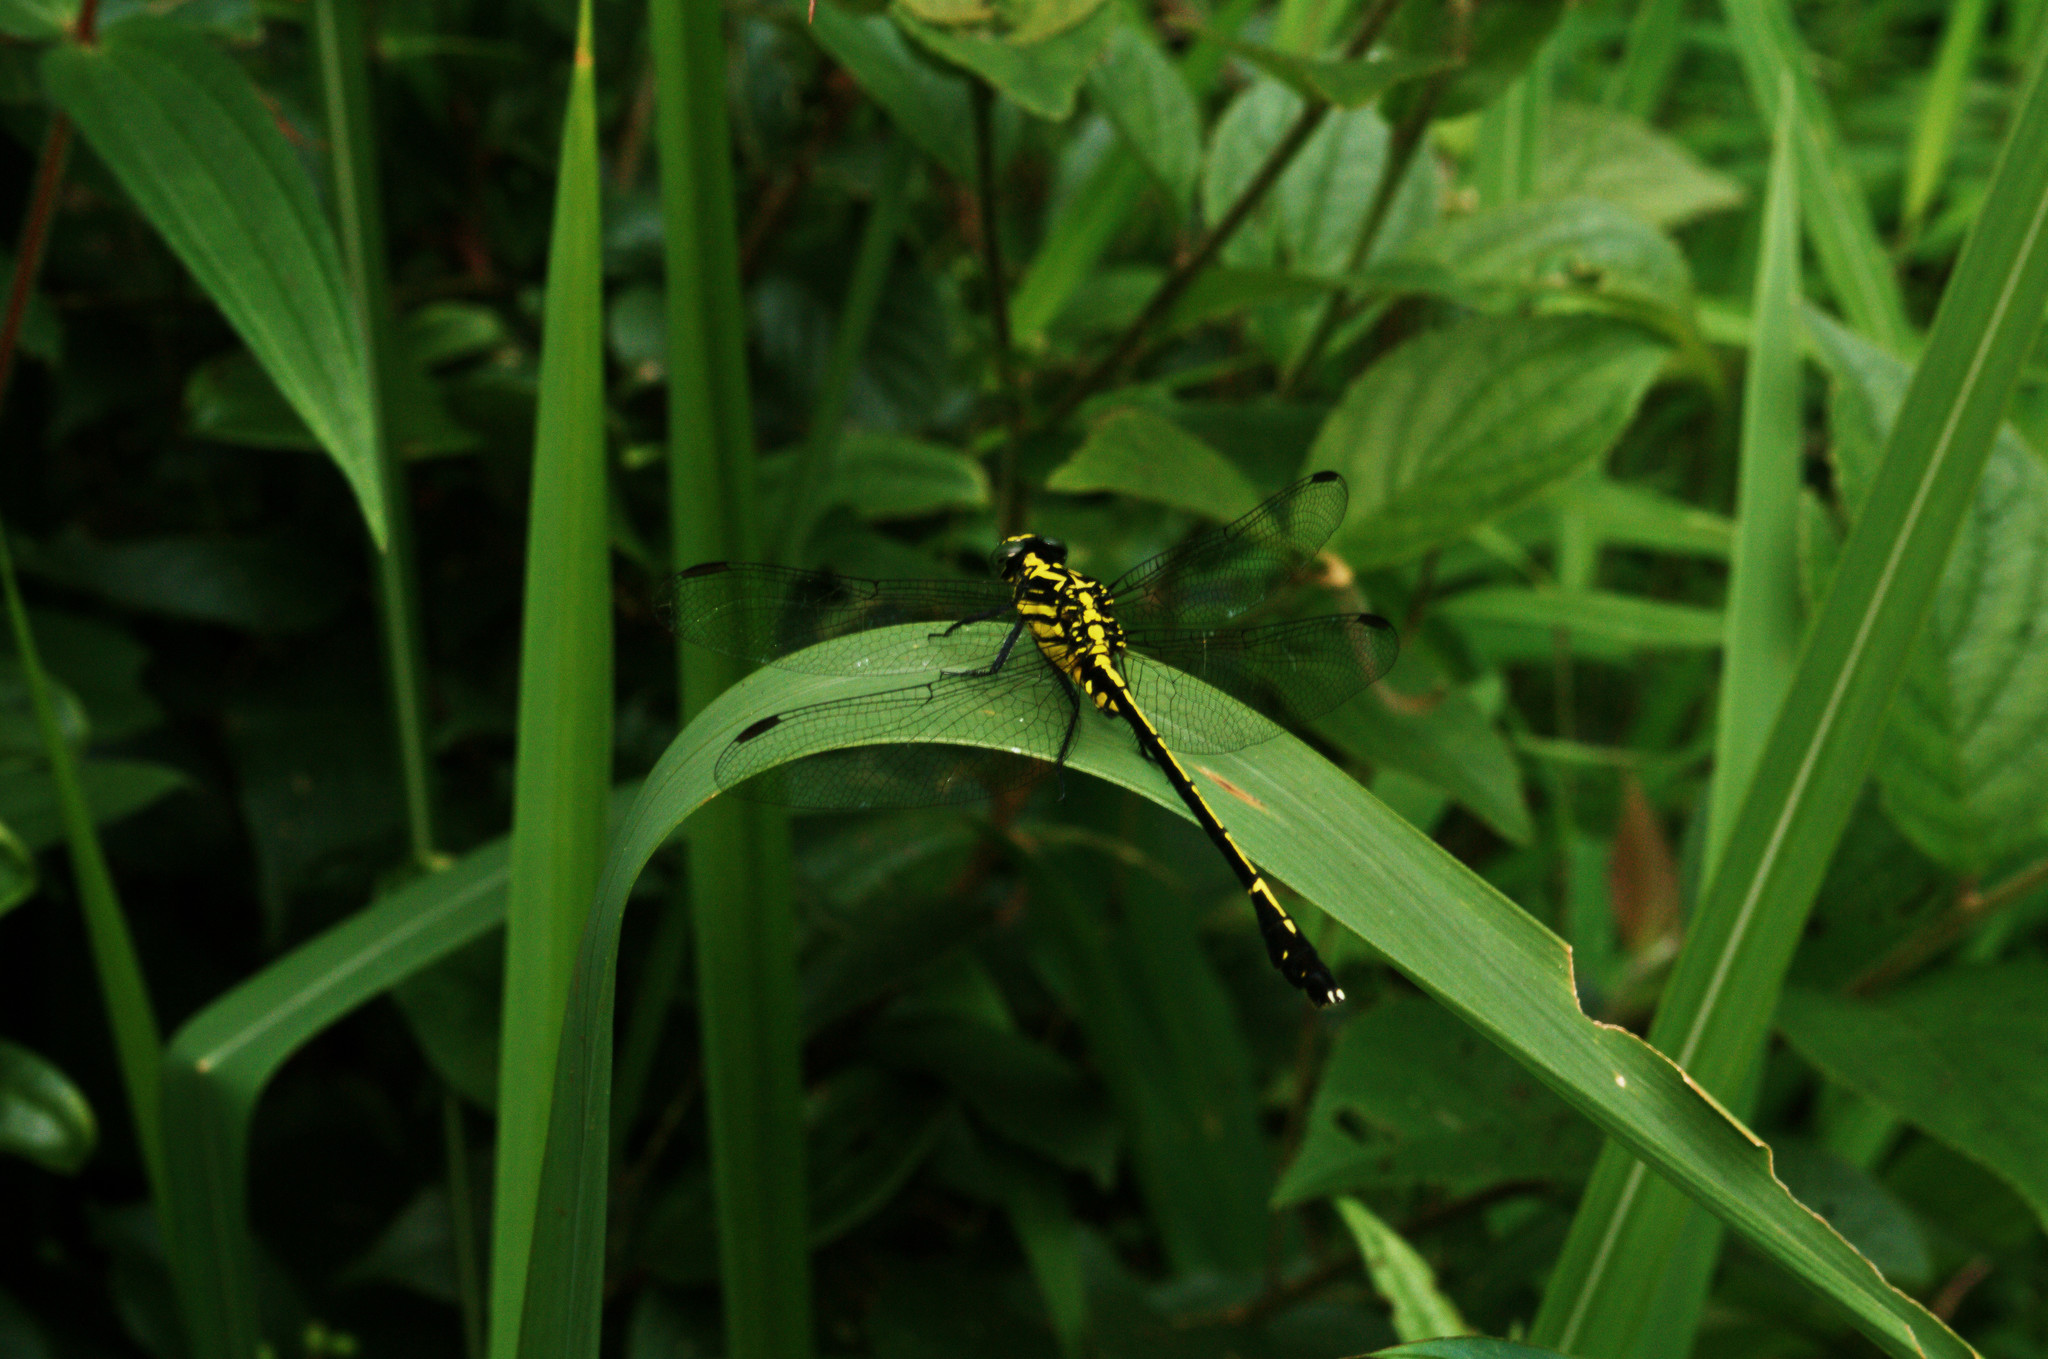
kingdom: Animalia
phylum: Arthropoda
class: Insecta
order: Odonata
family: Gomphidae
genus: Anisogomphus
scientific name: Anisogomphus occipitalis
